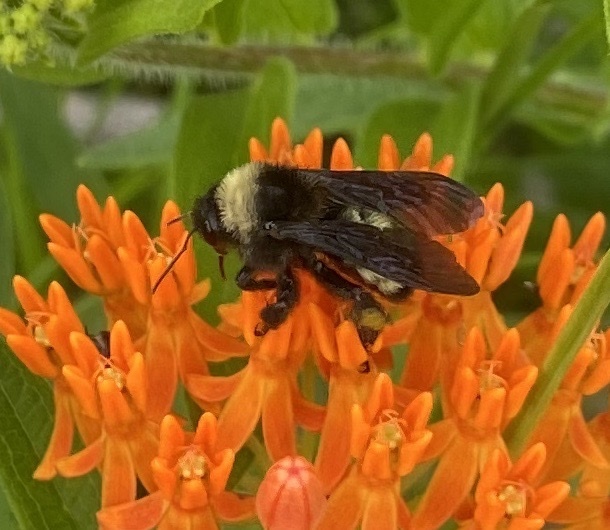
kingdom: Animalia
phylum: Arthropoda
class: Insecta
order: Hymenoptera
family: Apidae
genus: Bombus
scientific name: Bombus pensylvanicus
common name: Bumble bee
